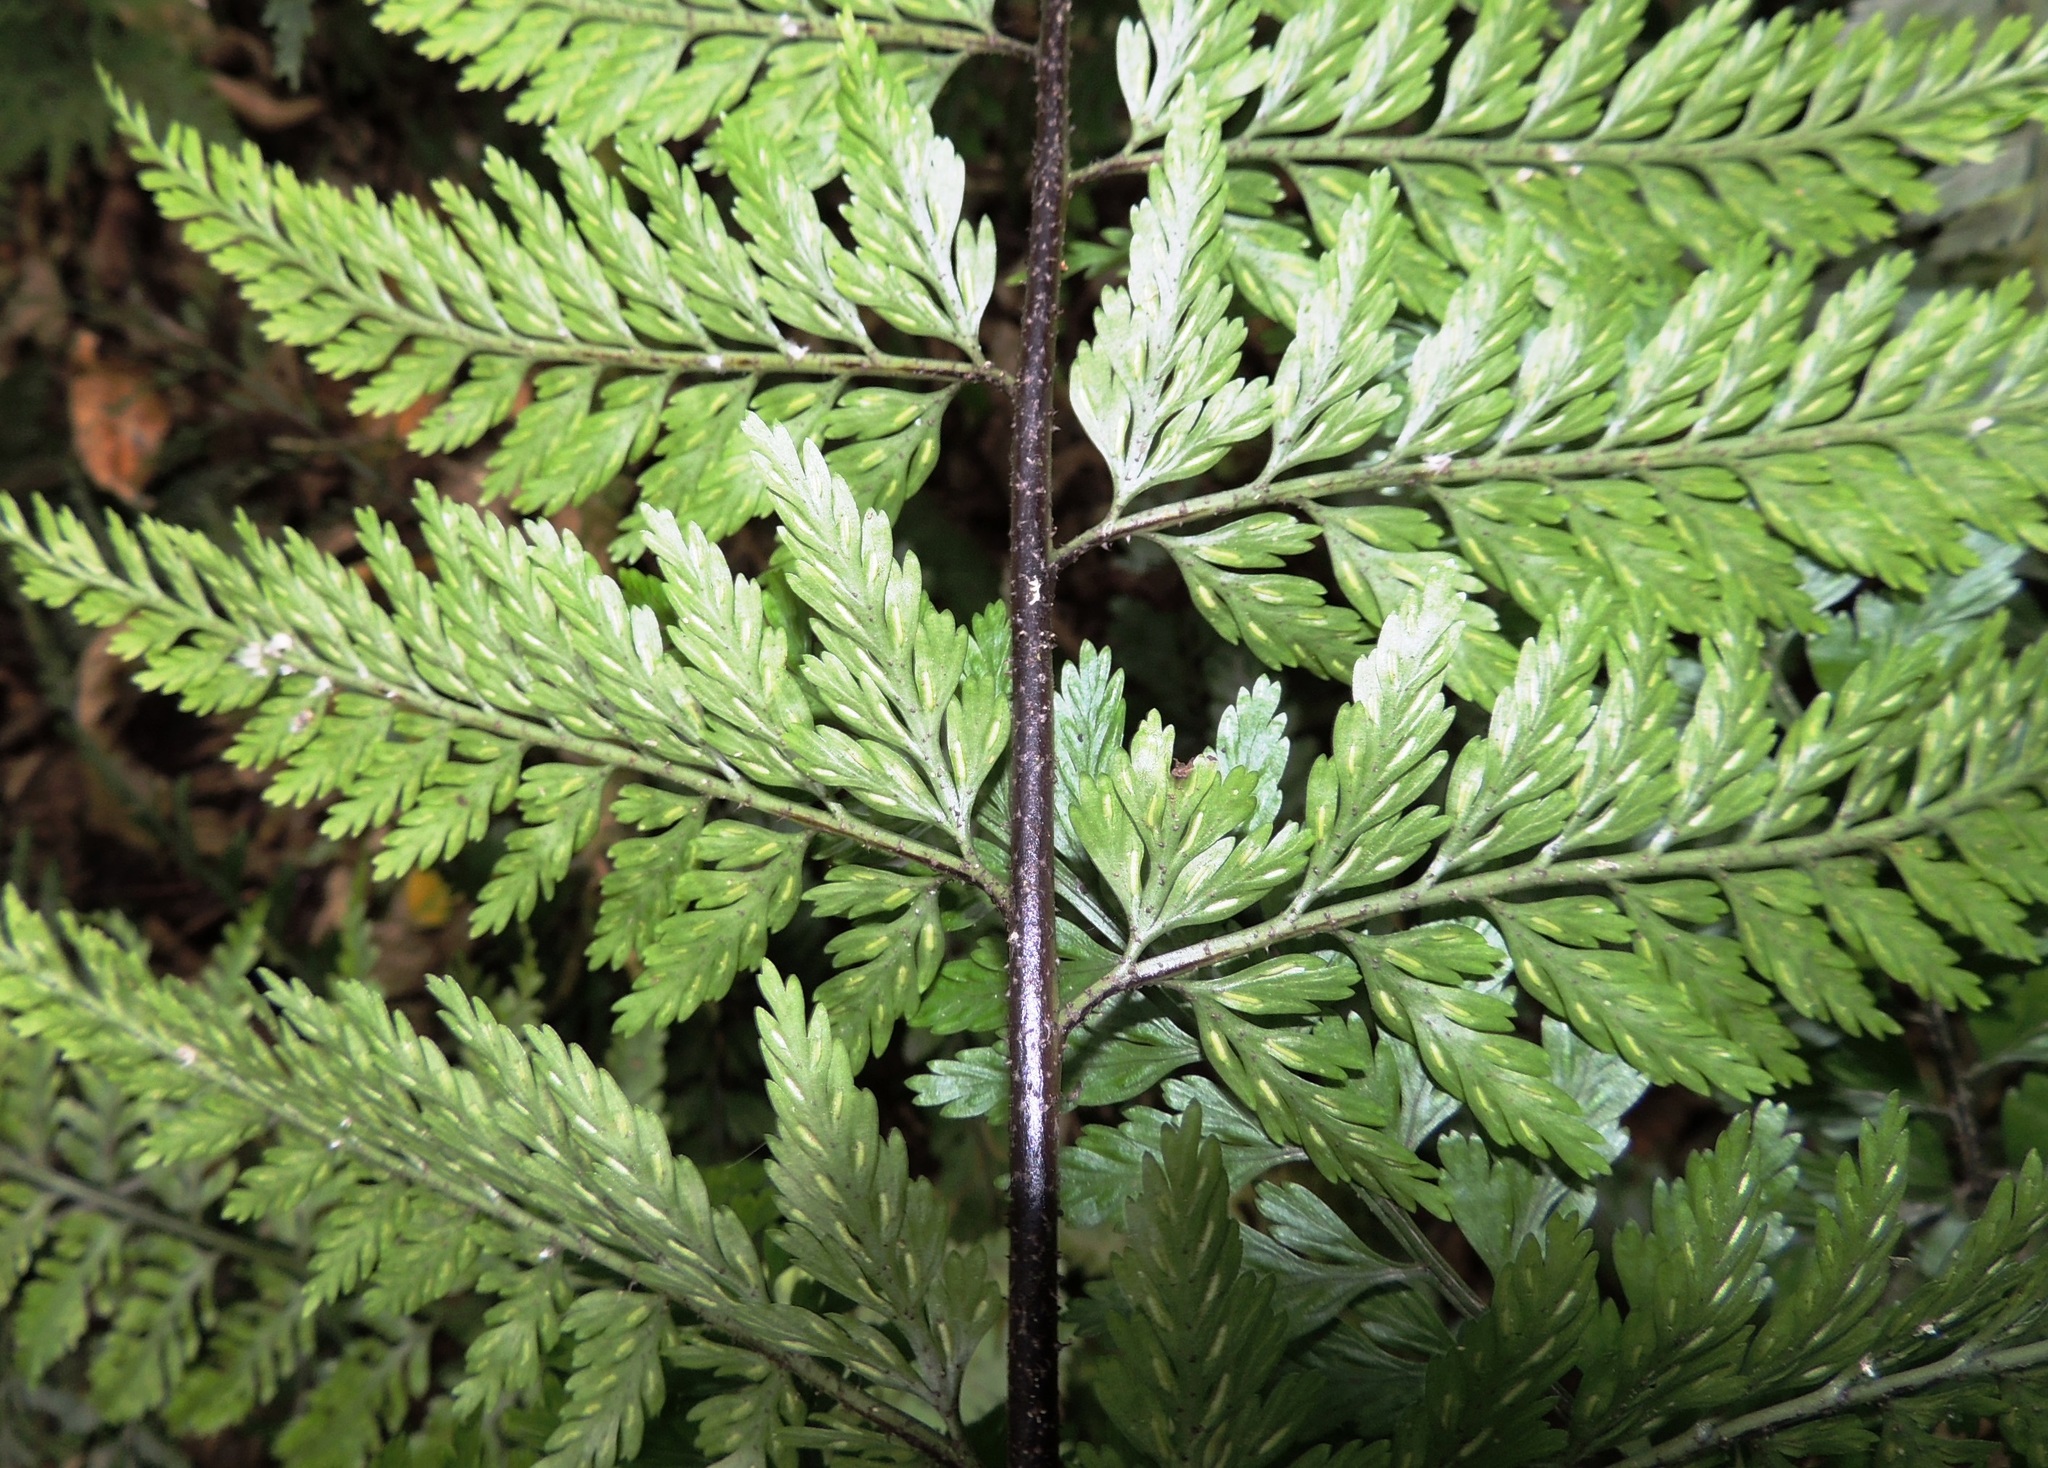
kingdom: Plantae
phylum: Tracheophyta
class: Polypodiopsida
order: Polypodiales
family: Aspleniaceae
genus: Asplenium
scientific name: Asplenium
